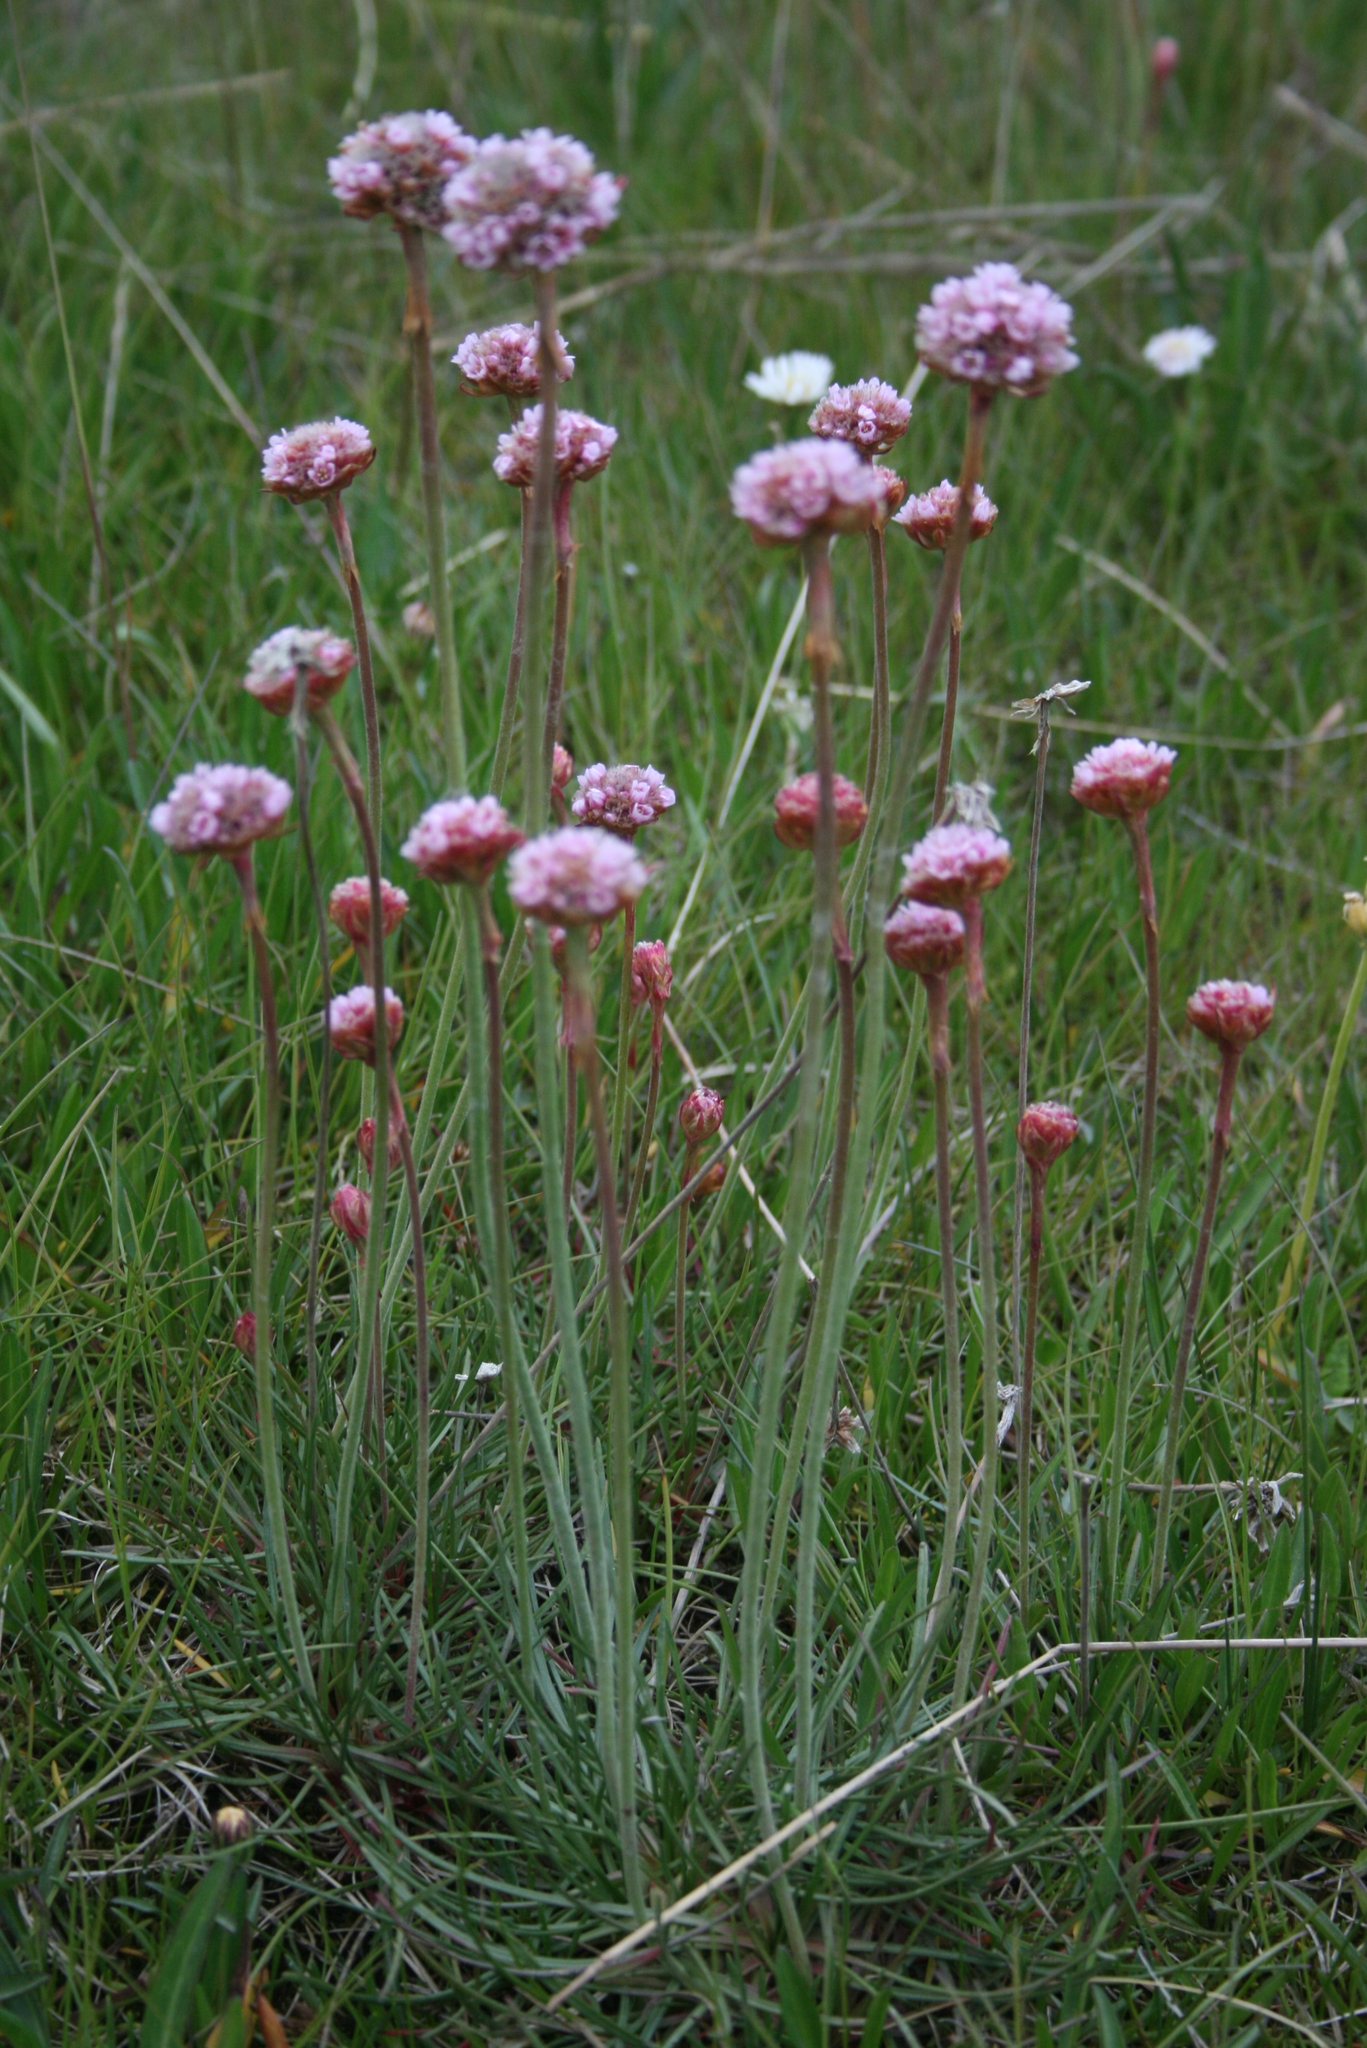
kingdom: Plantae
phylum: Tracheophyta
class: Magnoliopsida
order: Caryophyllales
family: Plumbaginaceae
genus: Armeria
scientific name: Armeria curvifolia
